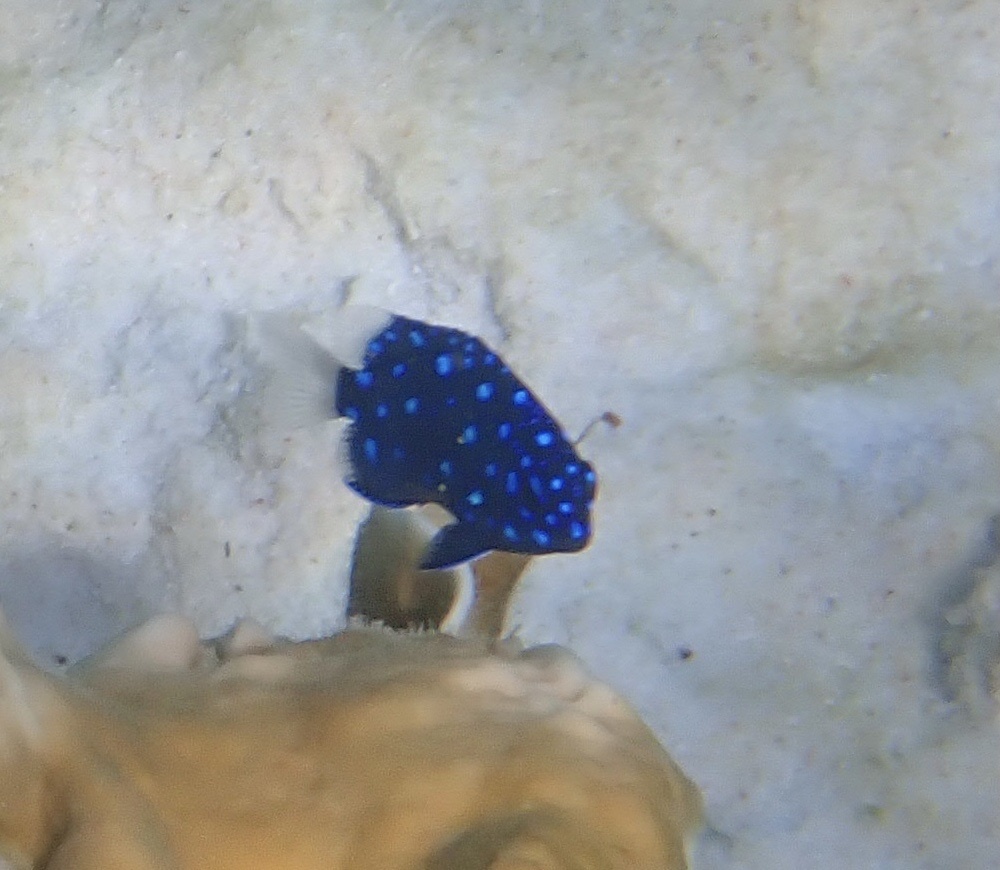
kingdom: Animalia
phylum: Chordata
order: Perciformes
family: Pomacentridae
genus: Microspathodon
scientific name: Microspathodon chrysurus
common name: Yellowtail damselfish
